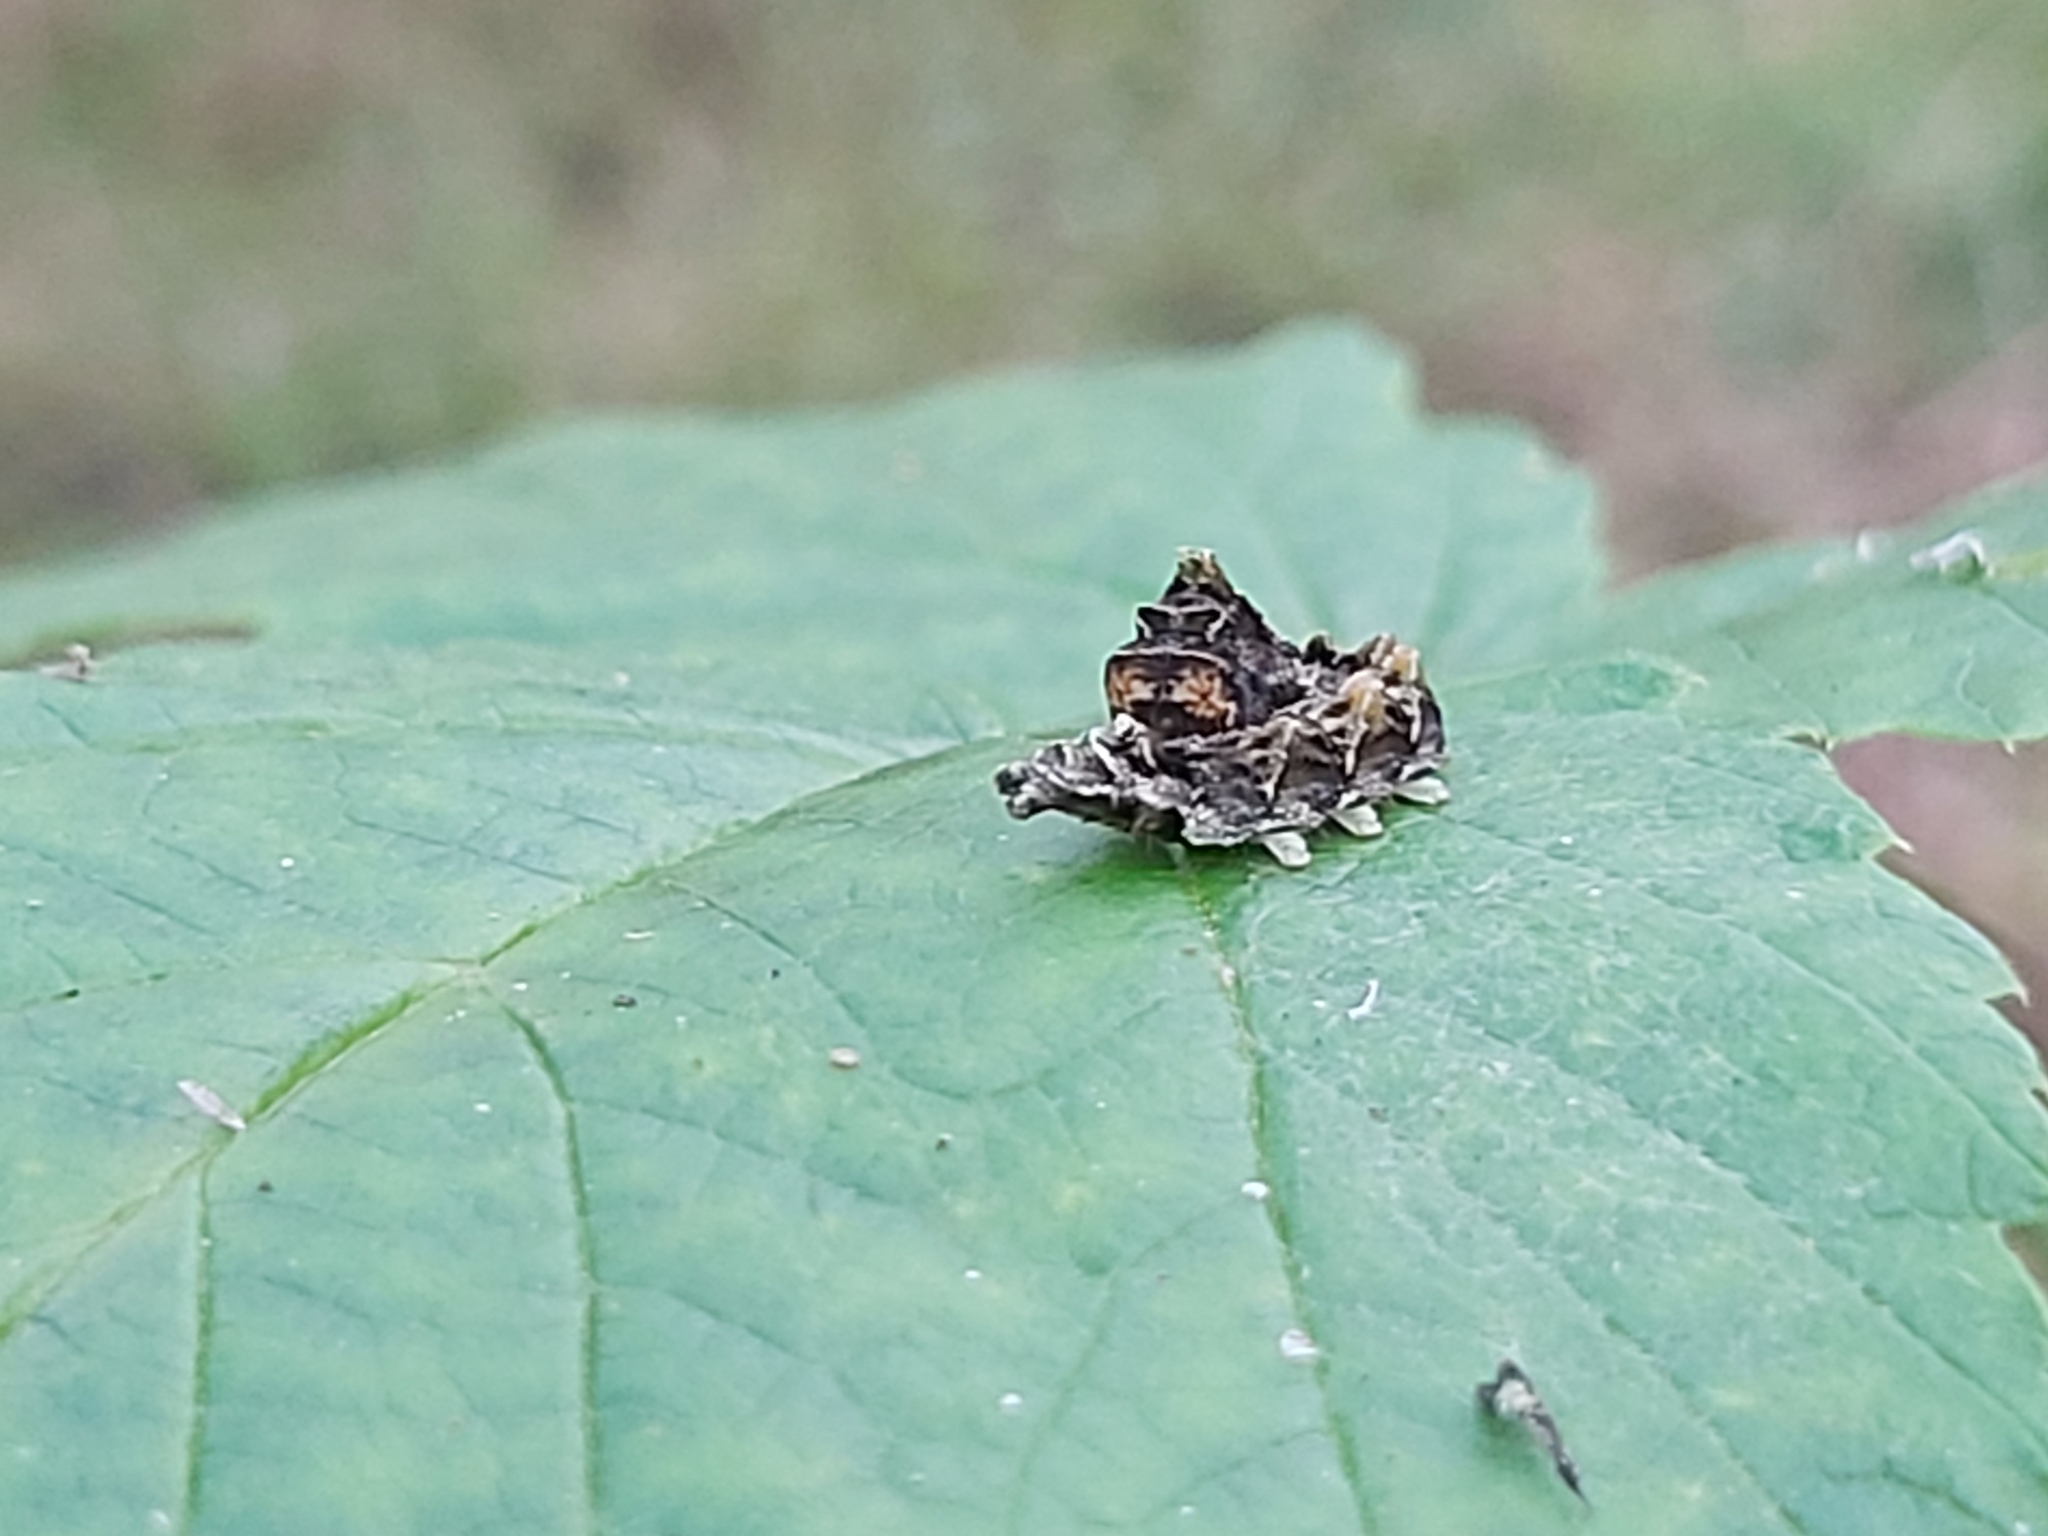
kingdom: Animalia
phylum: Arthropoda
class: Insecta
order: Lepidoptera
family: Drepanidae
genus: Thyatira
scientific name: Thyatira batis
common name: Peach blossom
